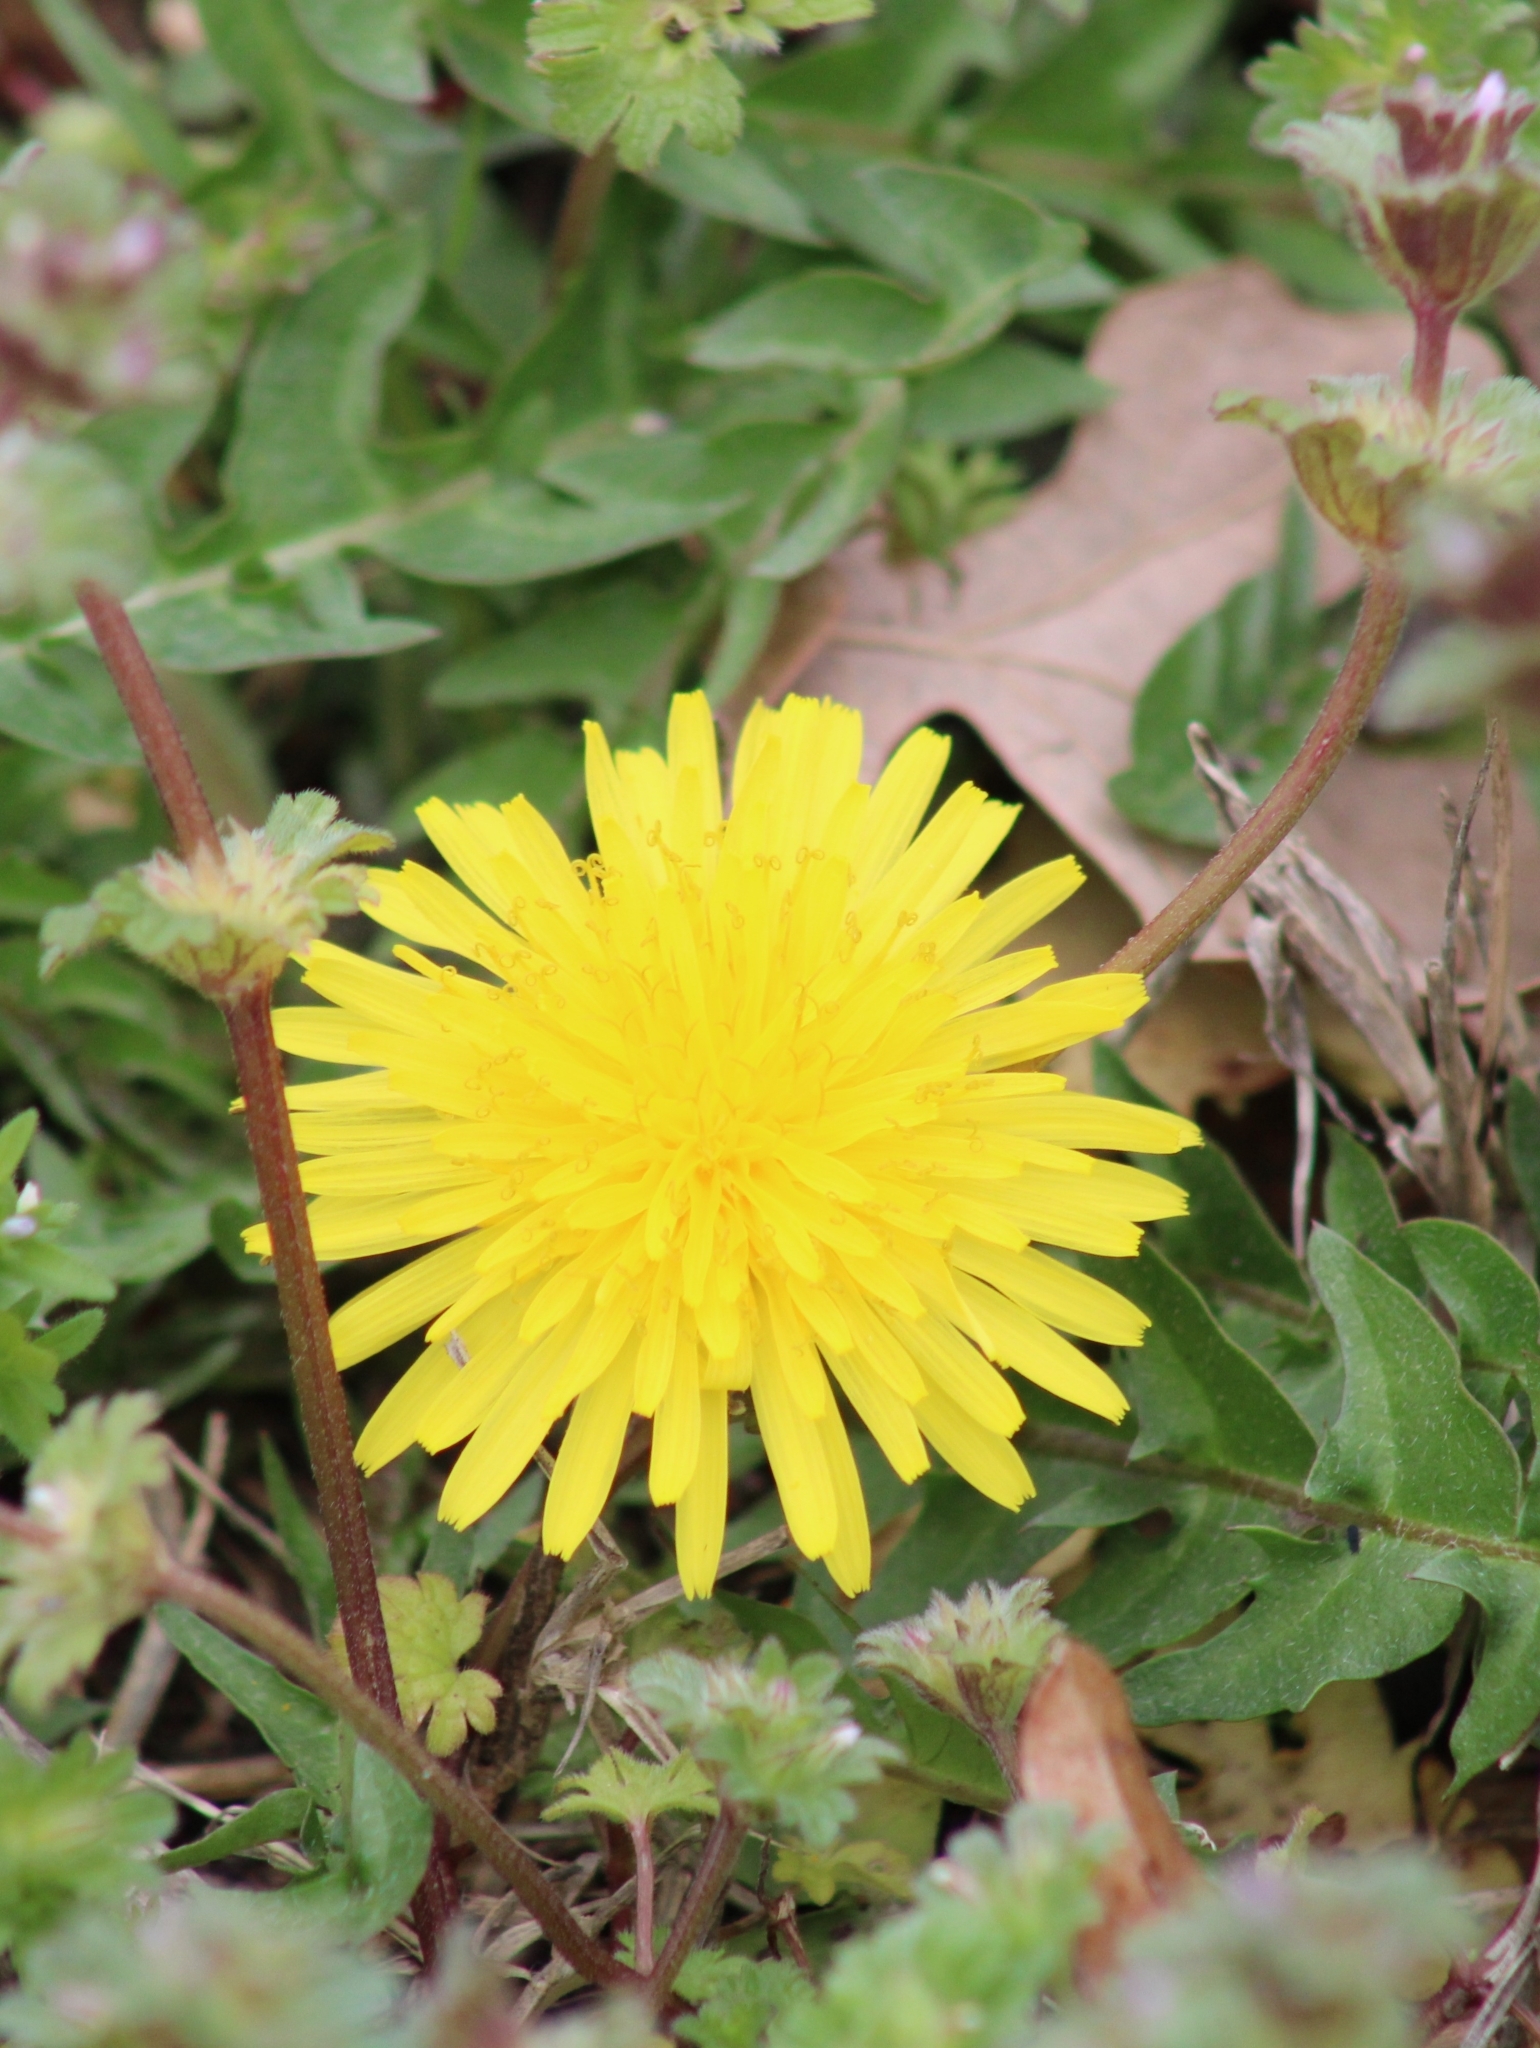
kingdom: Plantae
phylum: Tracheophyta
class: Magnoliopsida
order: Asterales
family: Asteraceae
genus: Taraxacum
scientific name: Taraxacum
